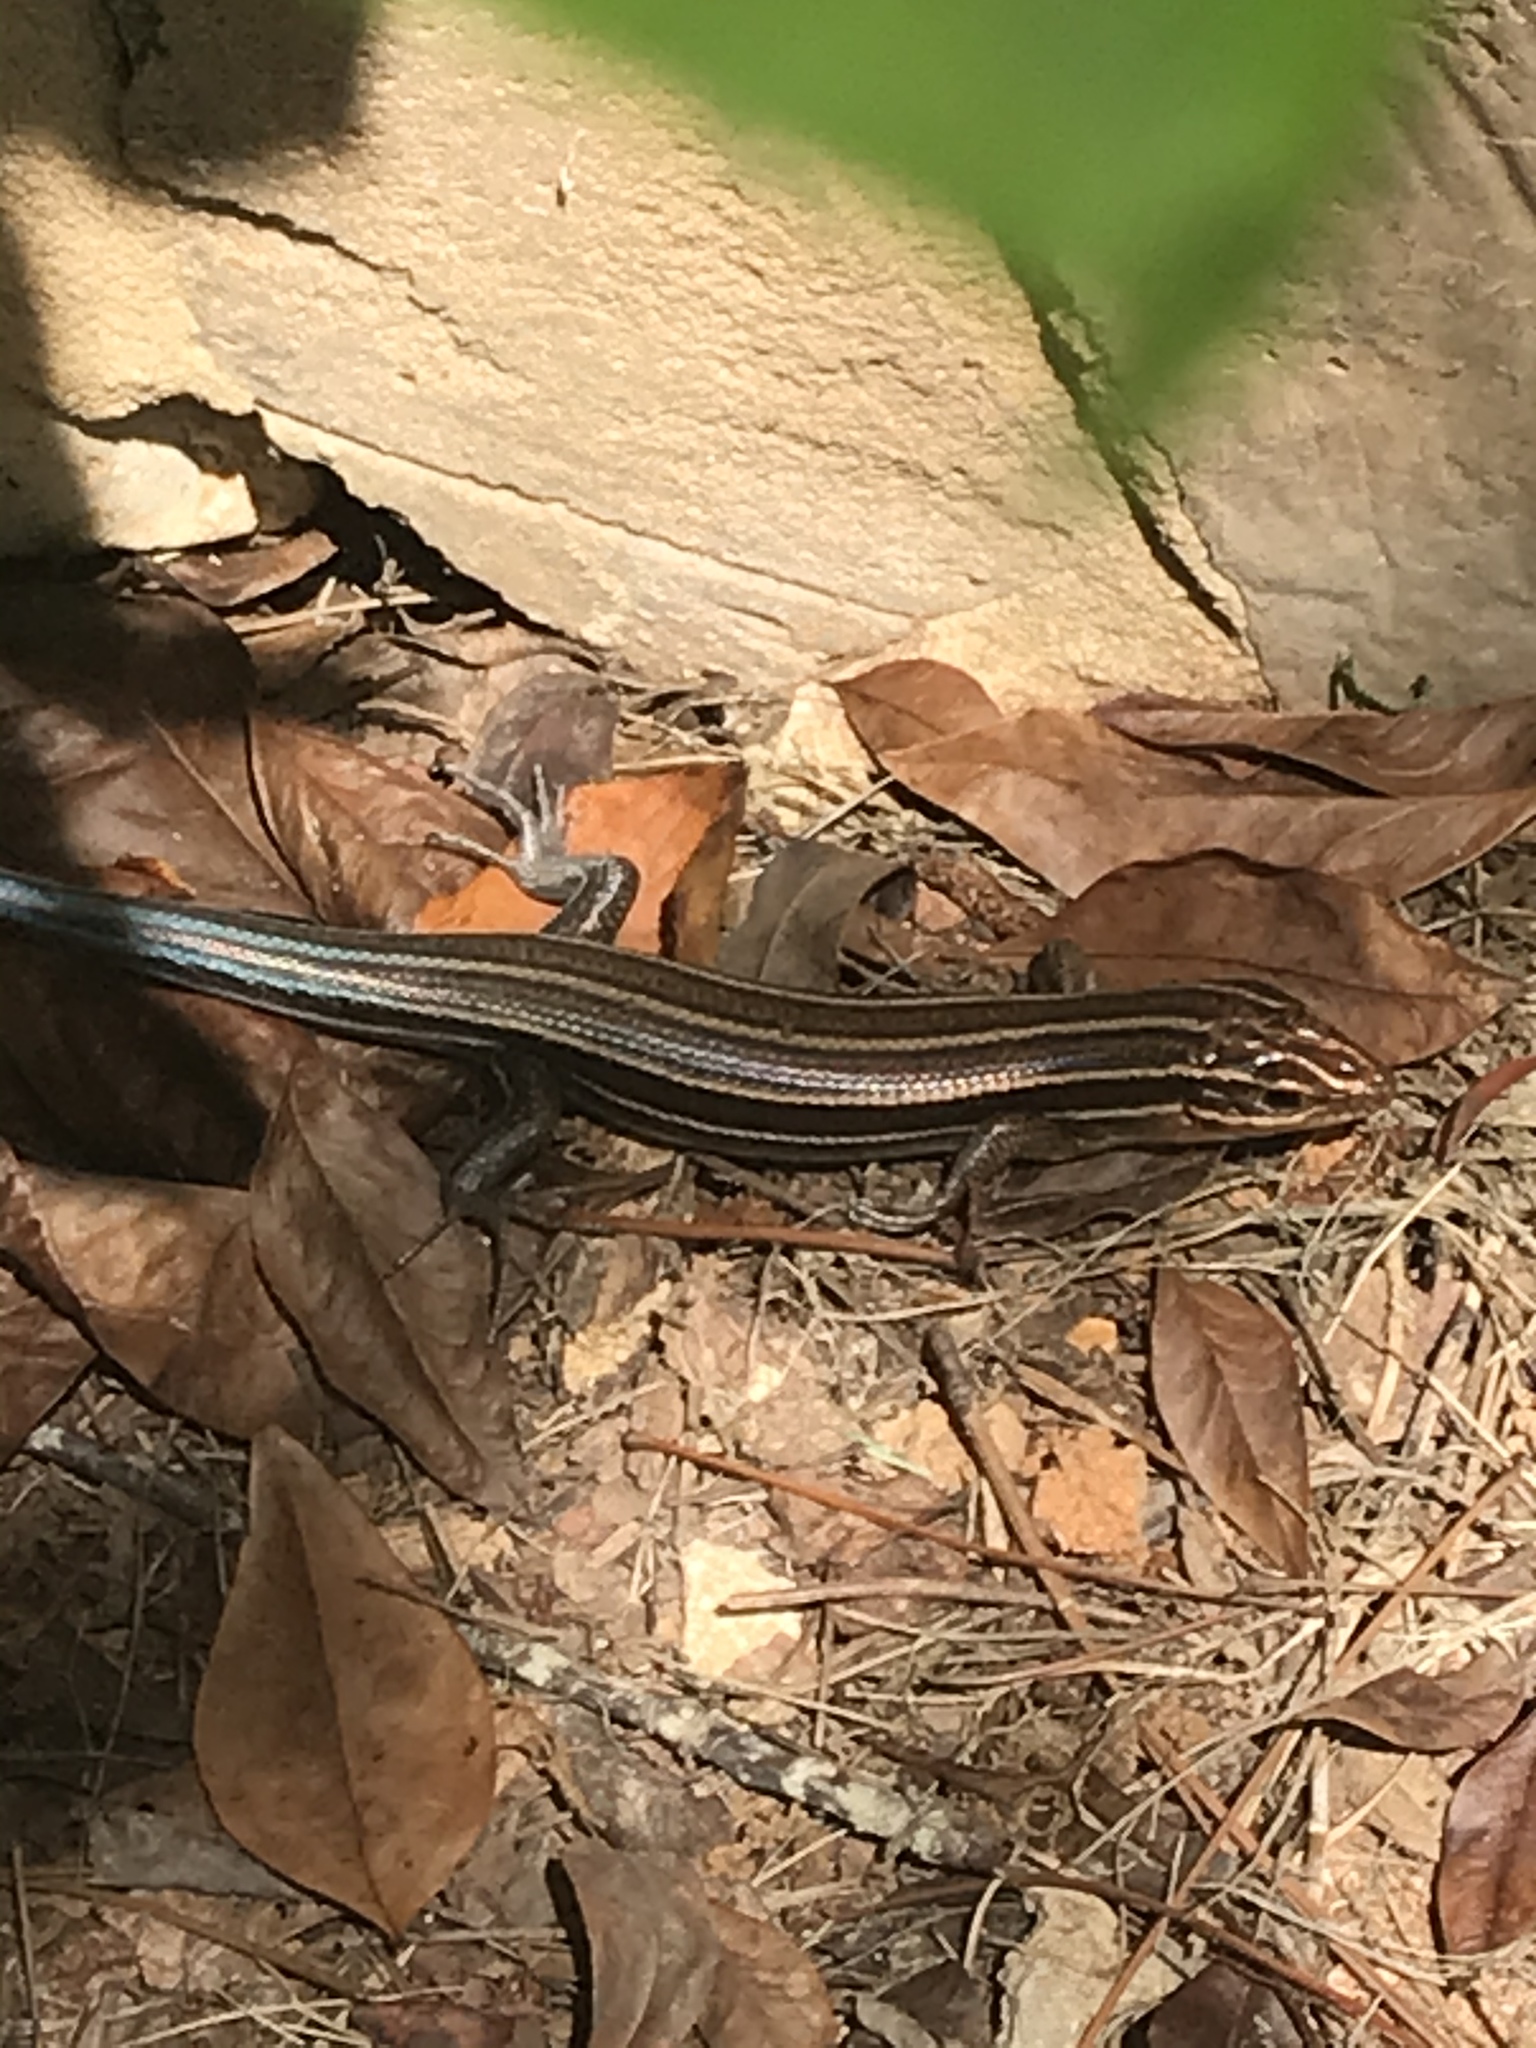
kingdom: Animalia
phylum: Chordata
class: Squamata
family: Scincidae
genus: Plestiodon
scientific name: Plestiodon laticeps
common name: Broadhead skink
